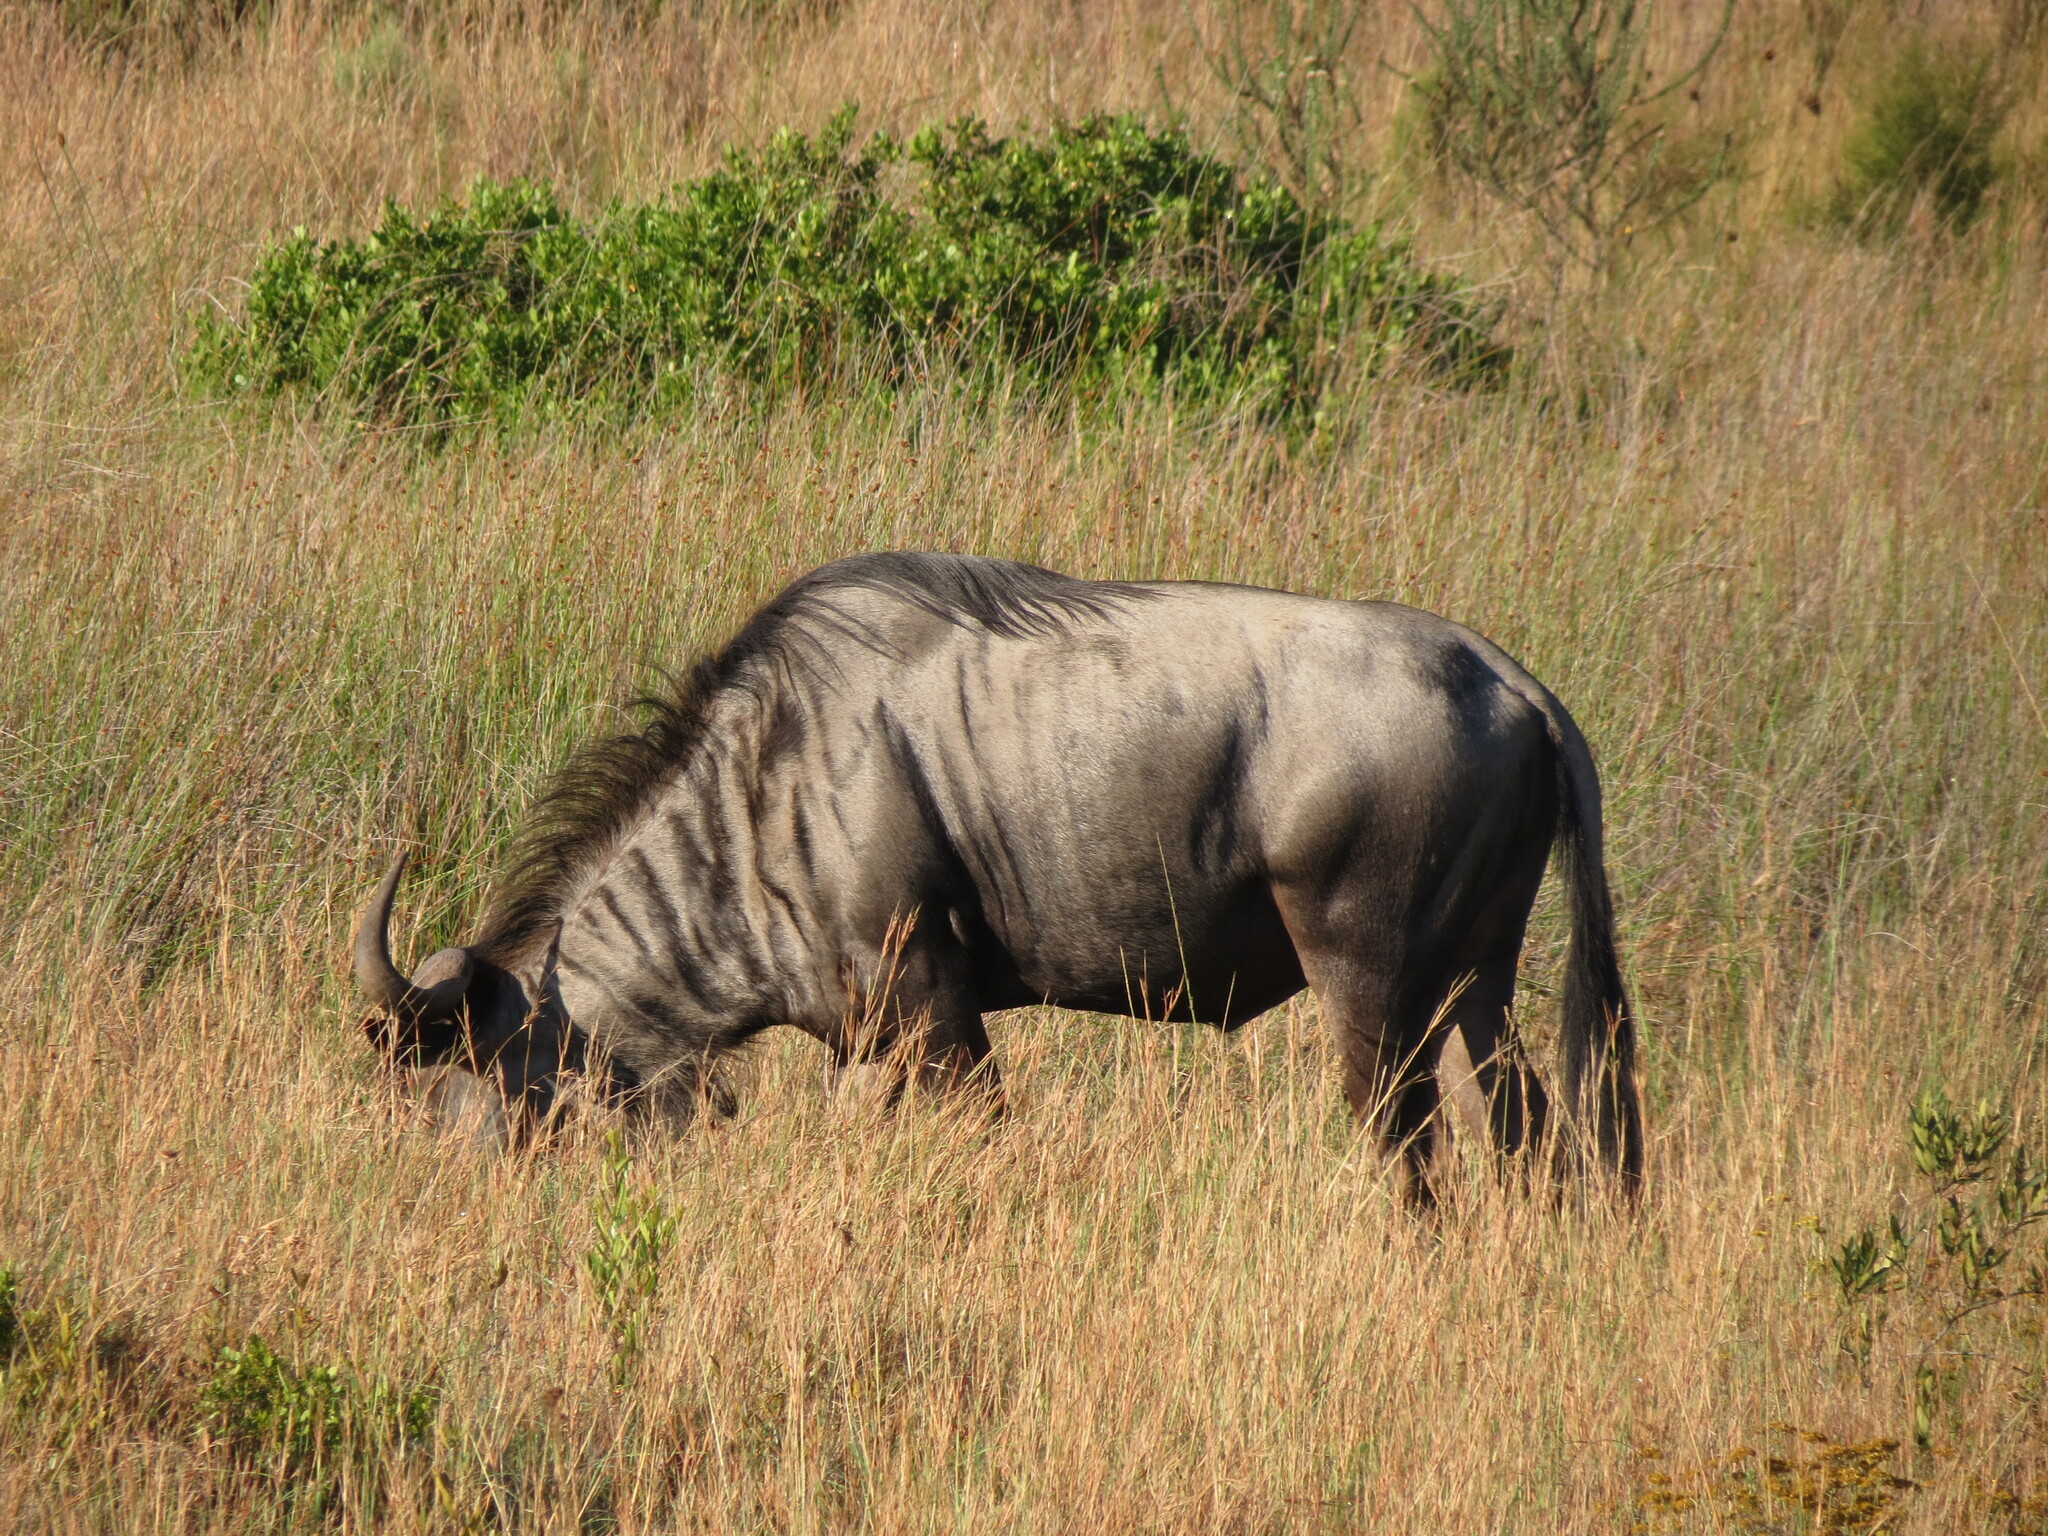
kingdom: Animalia
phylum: Chordata
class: Mammalia
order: Artiodactyla
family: Bovidae
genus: Connochaetes
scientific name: Connochaetes taurinus
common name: Blue wildebeest
